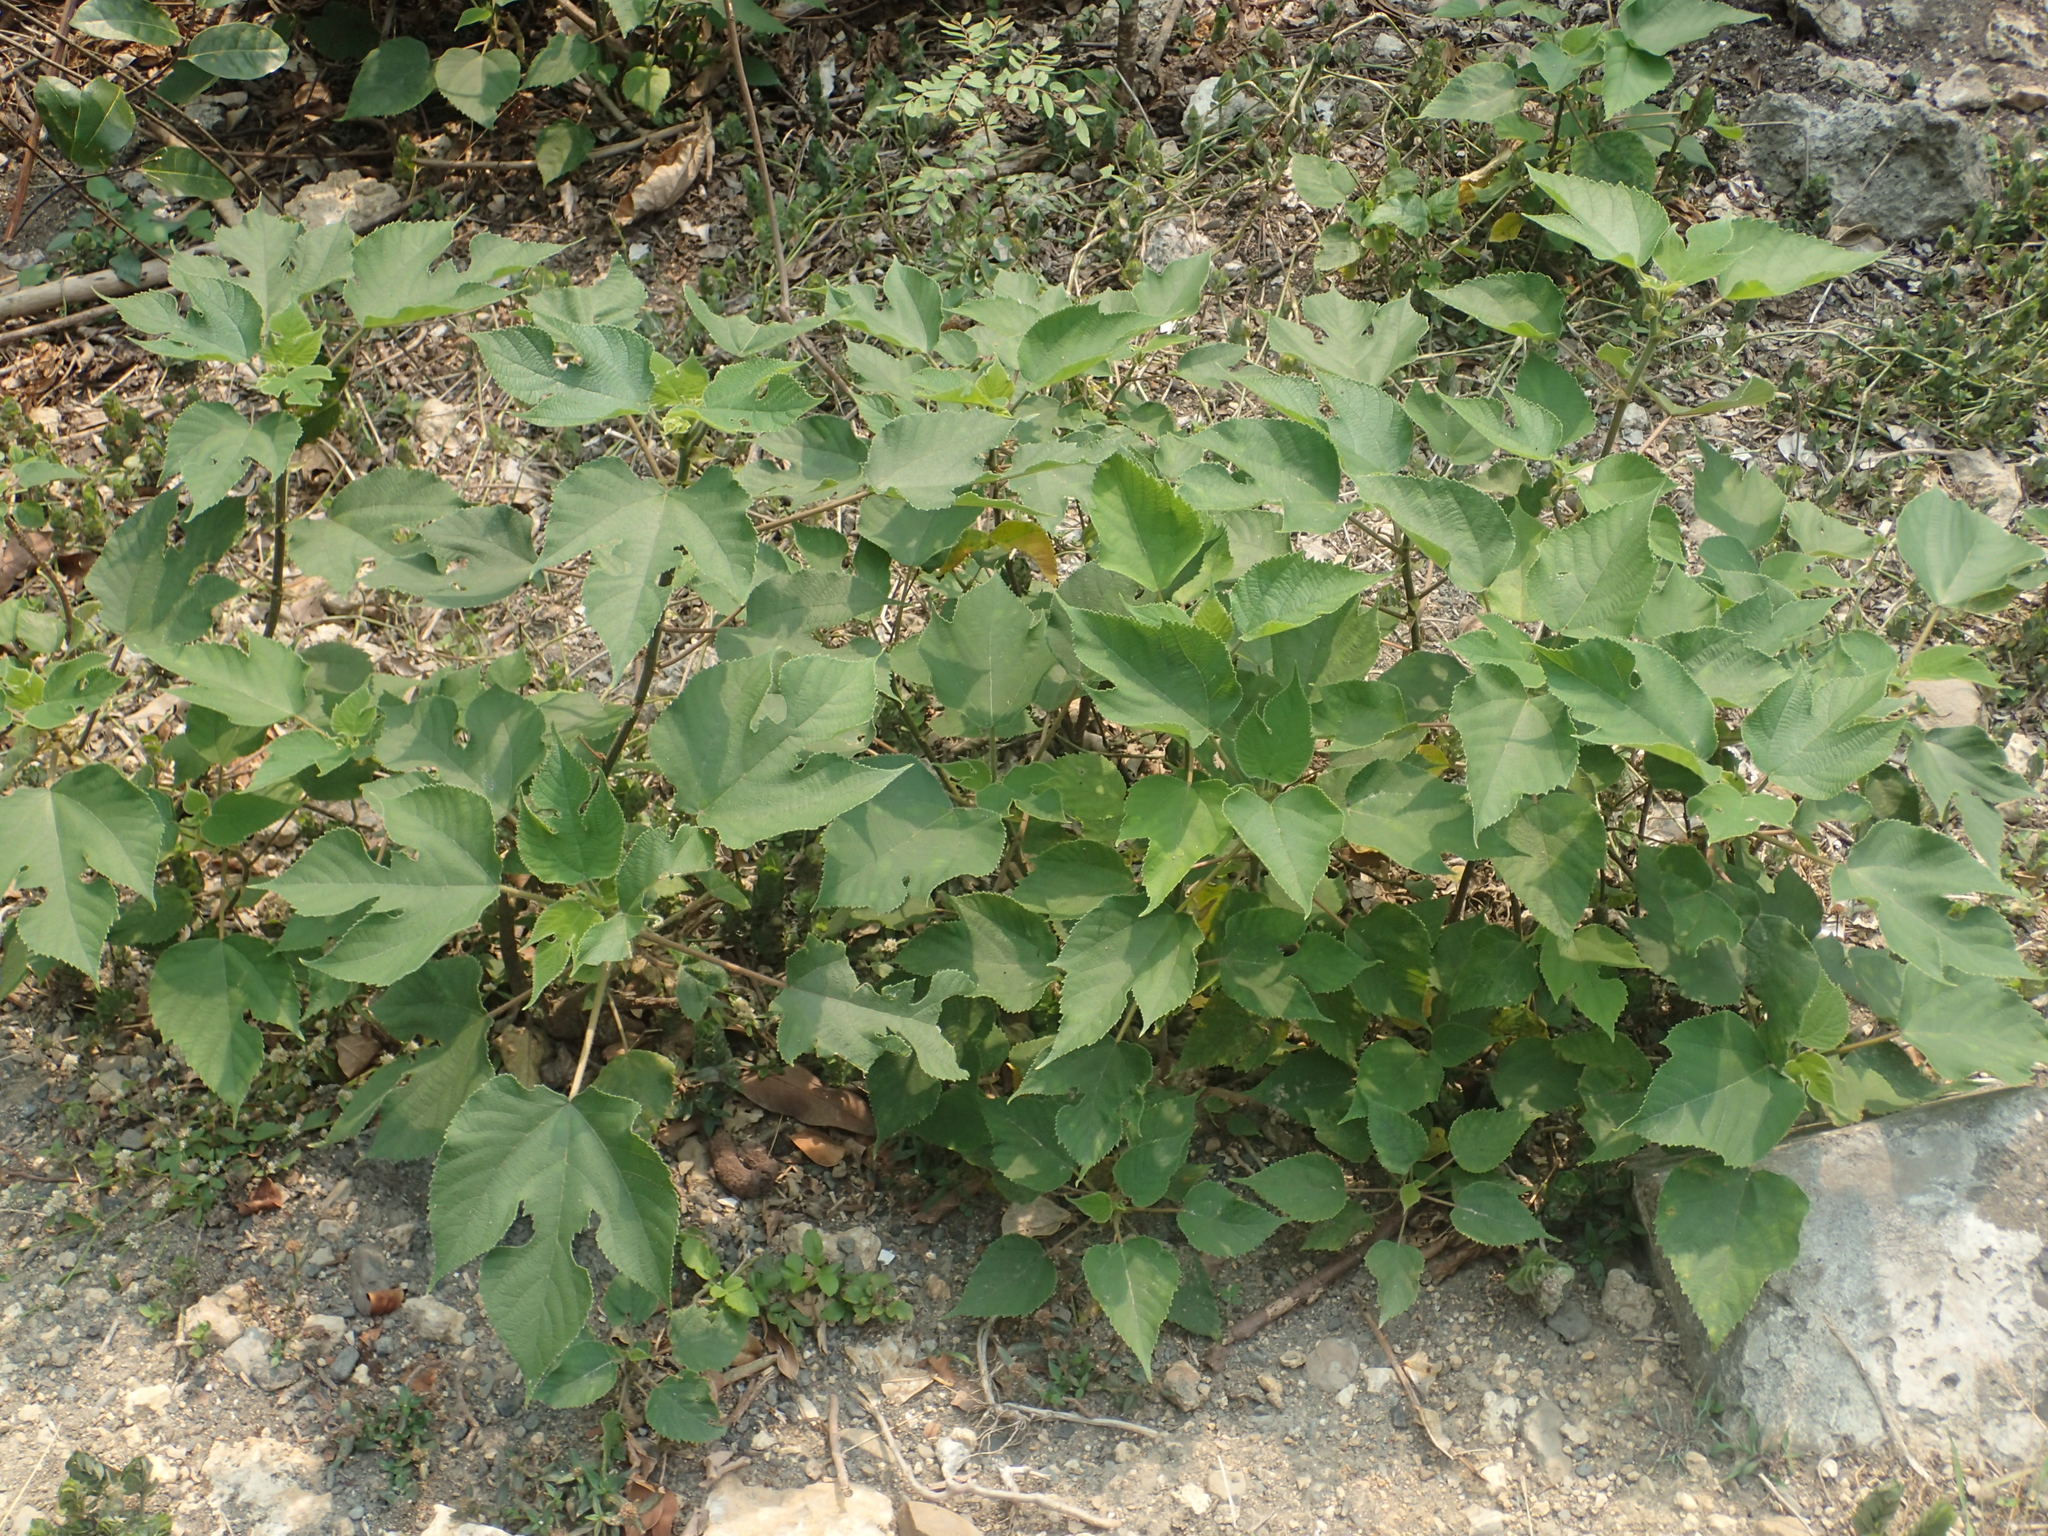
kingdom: Plantae
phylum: Tracheophyta
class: Magnoliopsida
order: Rosales
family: Moraceae
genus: Broussonetia
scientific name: Broussonetia papyrifera
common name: Paper mulberry
